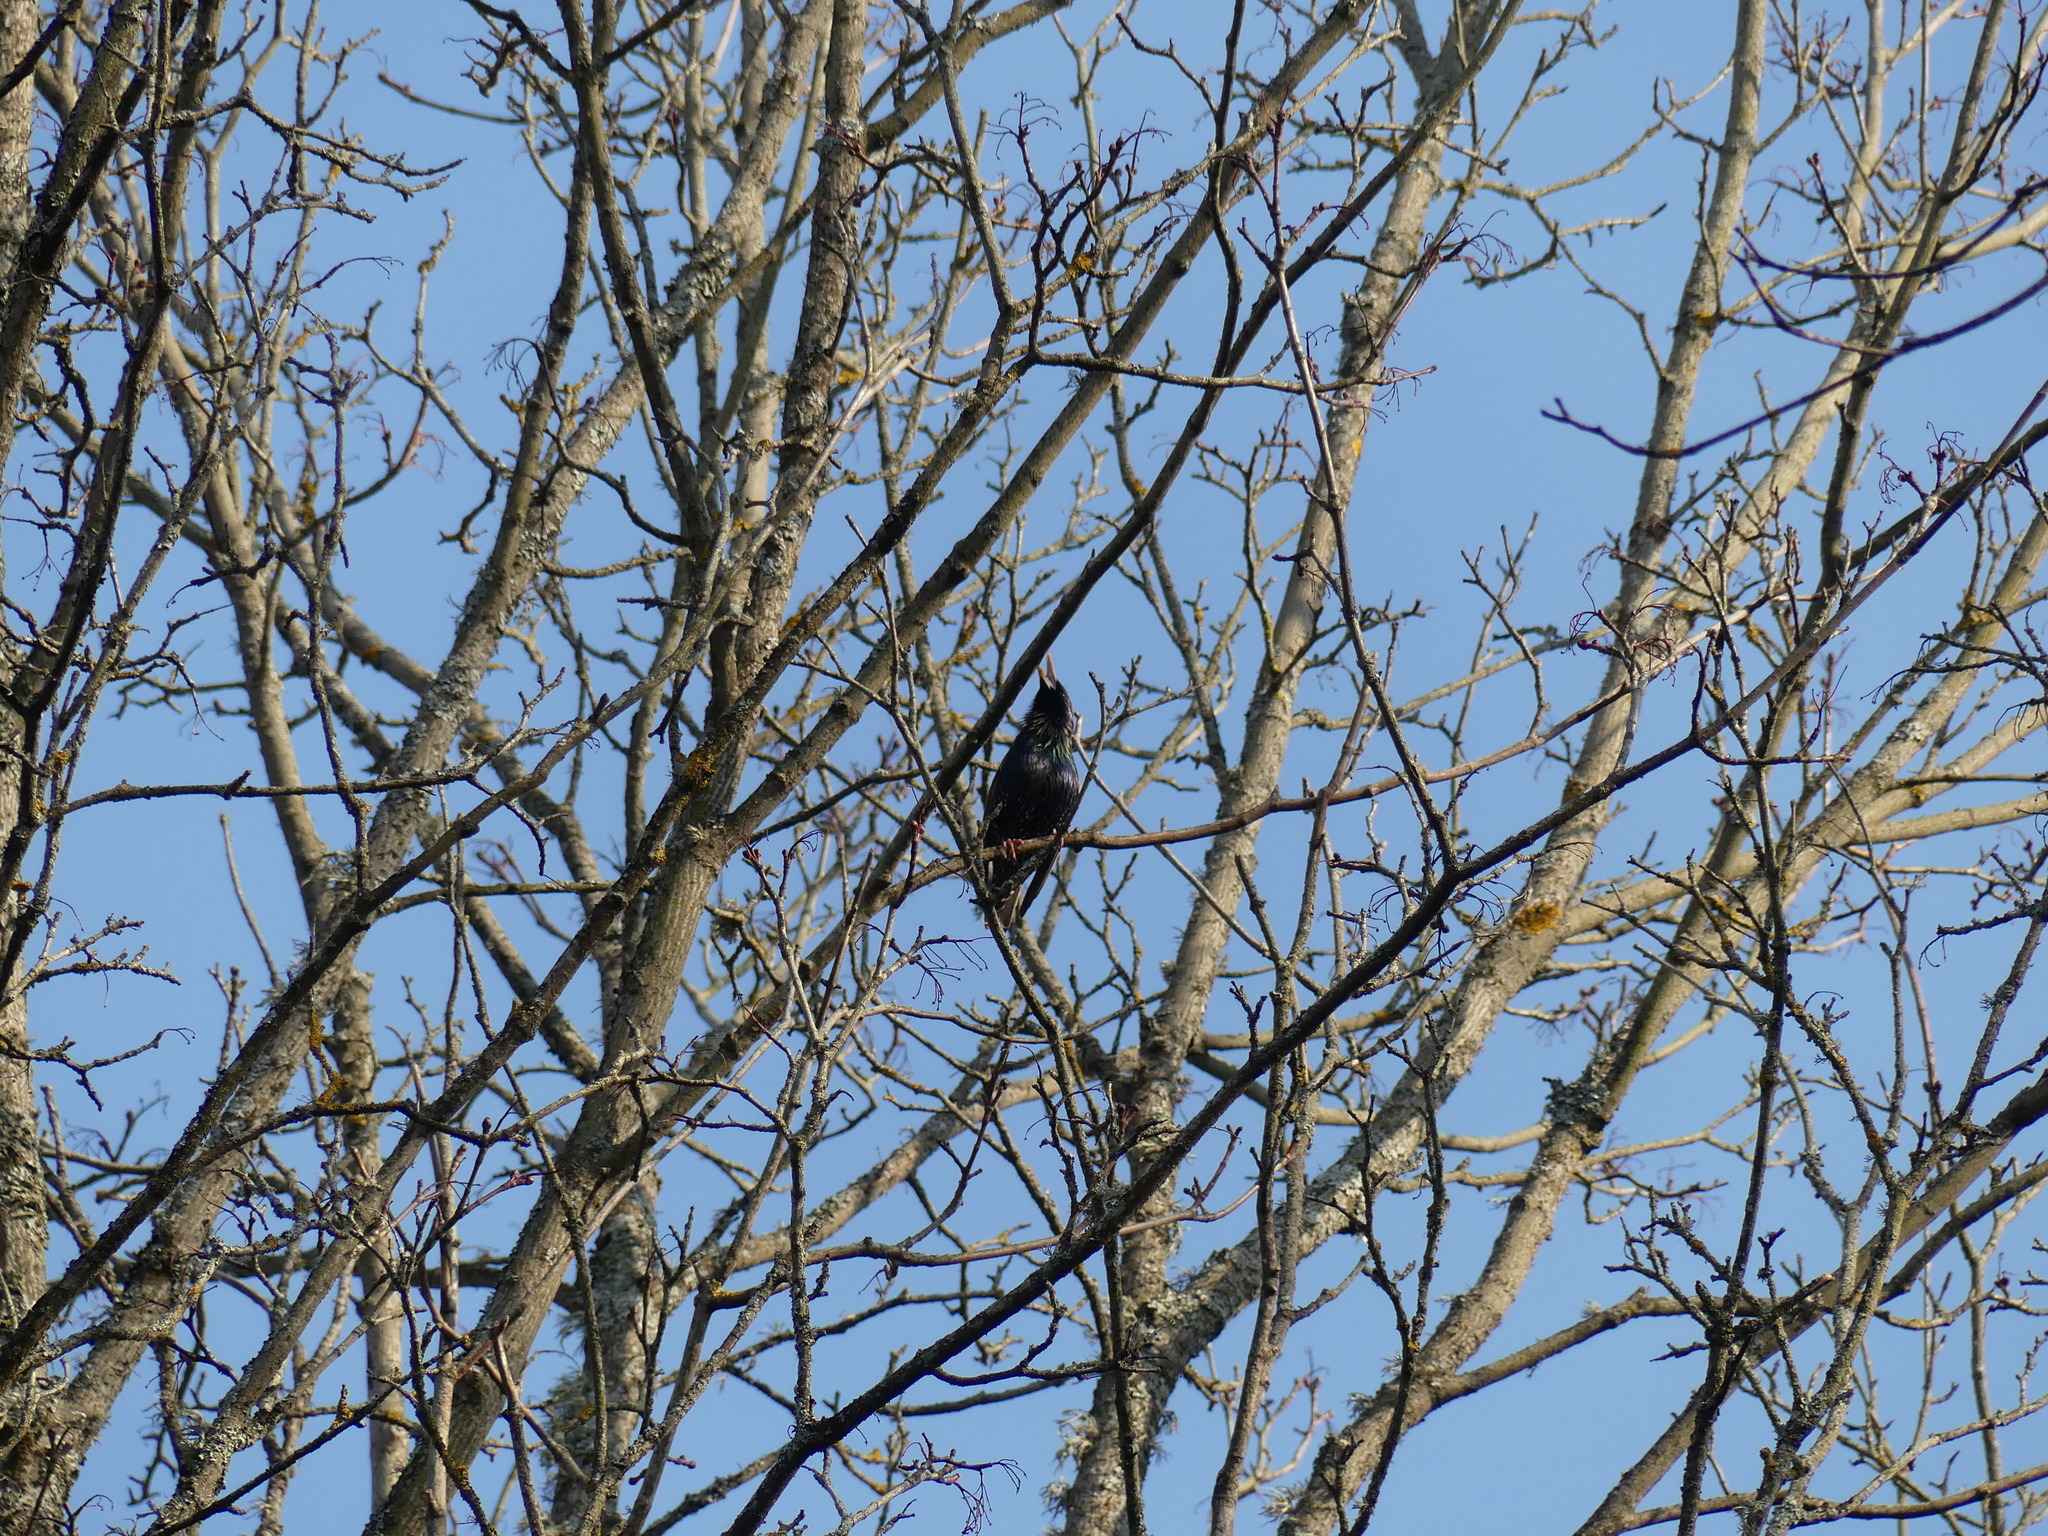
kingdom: Animalia
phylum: Chordata
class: Aves
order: Passeriformes
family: Sturnidae
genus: Sturnus
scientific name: Sturnus vulgaris
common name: Common starling
